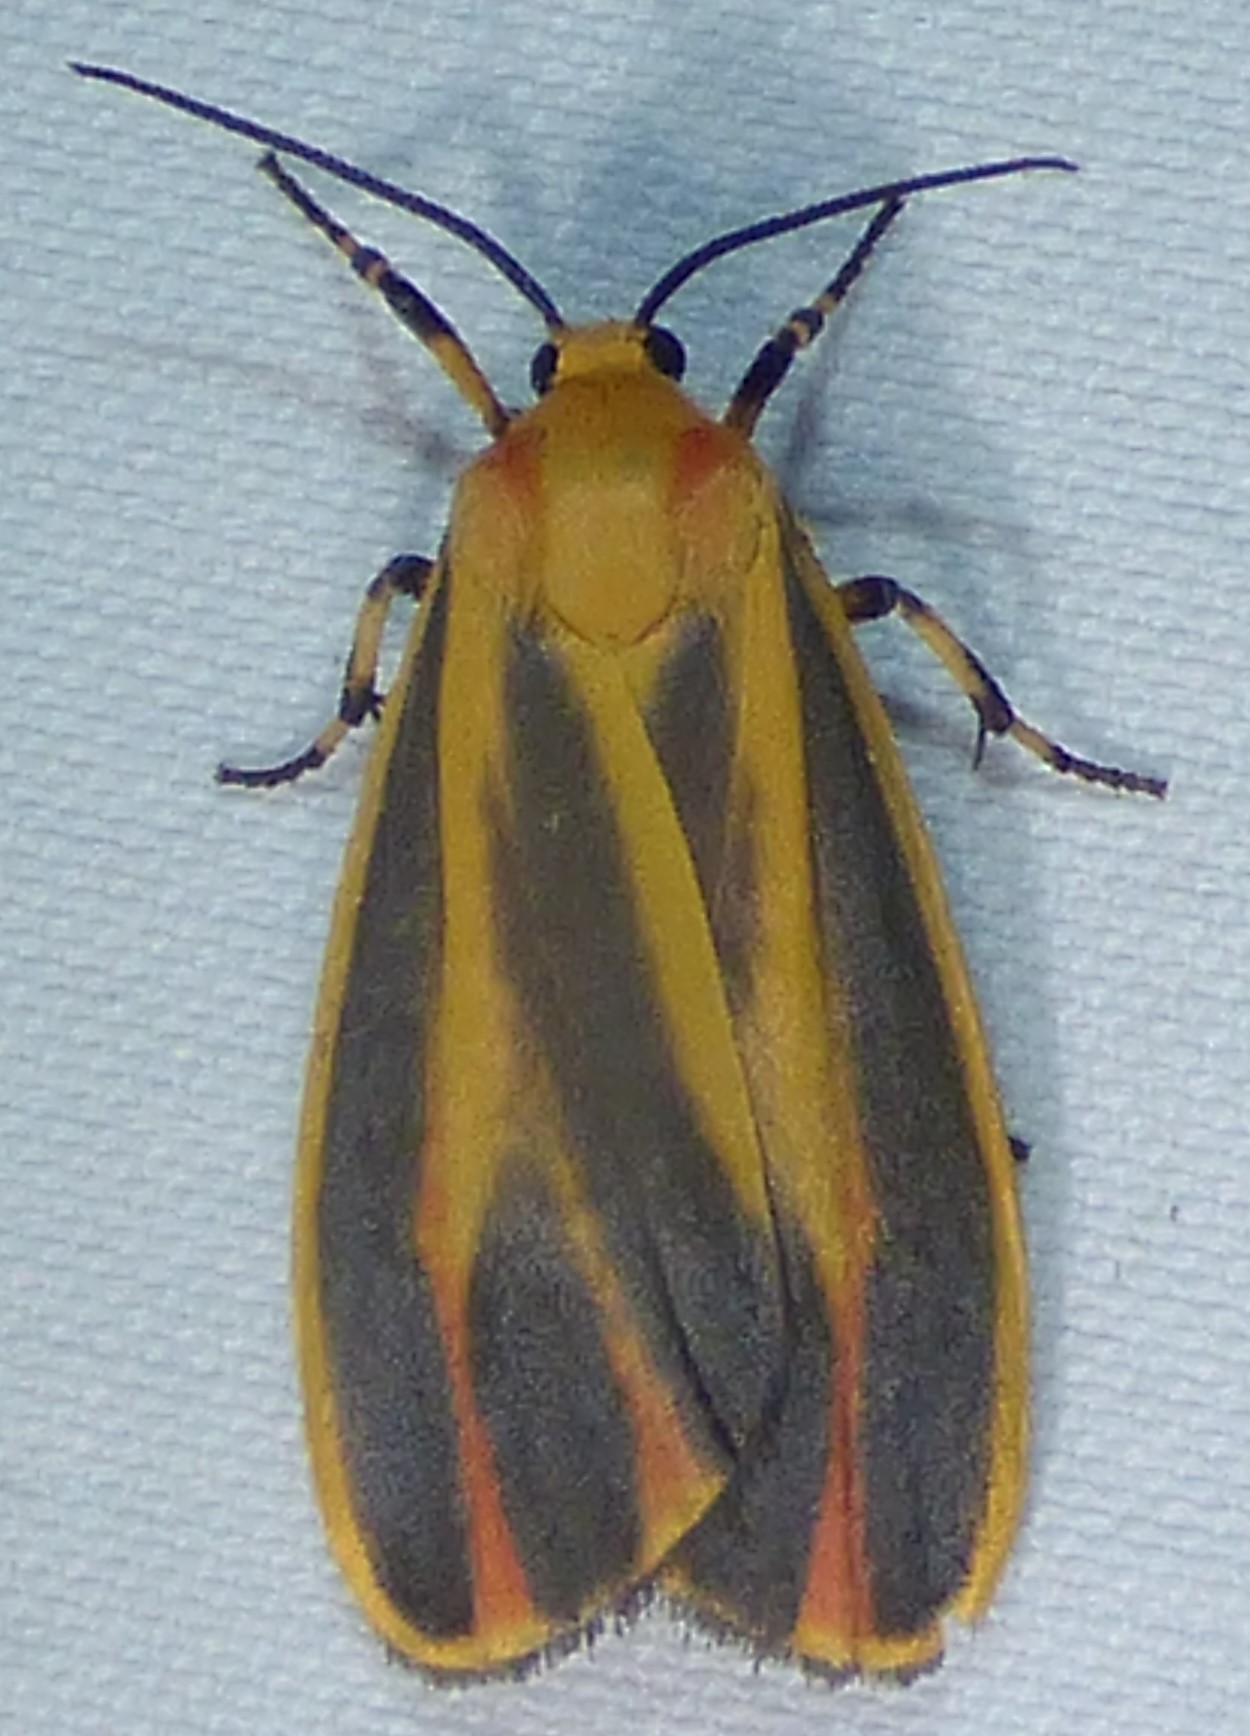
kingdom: Animalia
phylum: Arthropoda
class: Insecta
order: Lepidoptera
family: Erebidae
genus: Hypoprepia
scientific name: Hypoprepia fucosa
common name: Painted lichen moth
